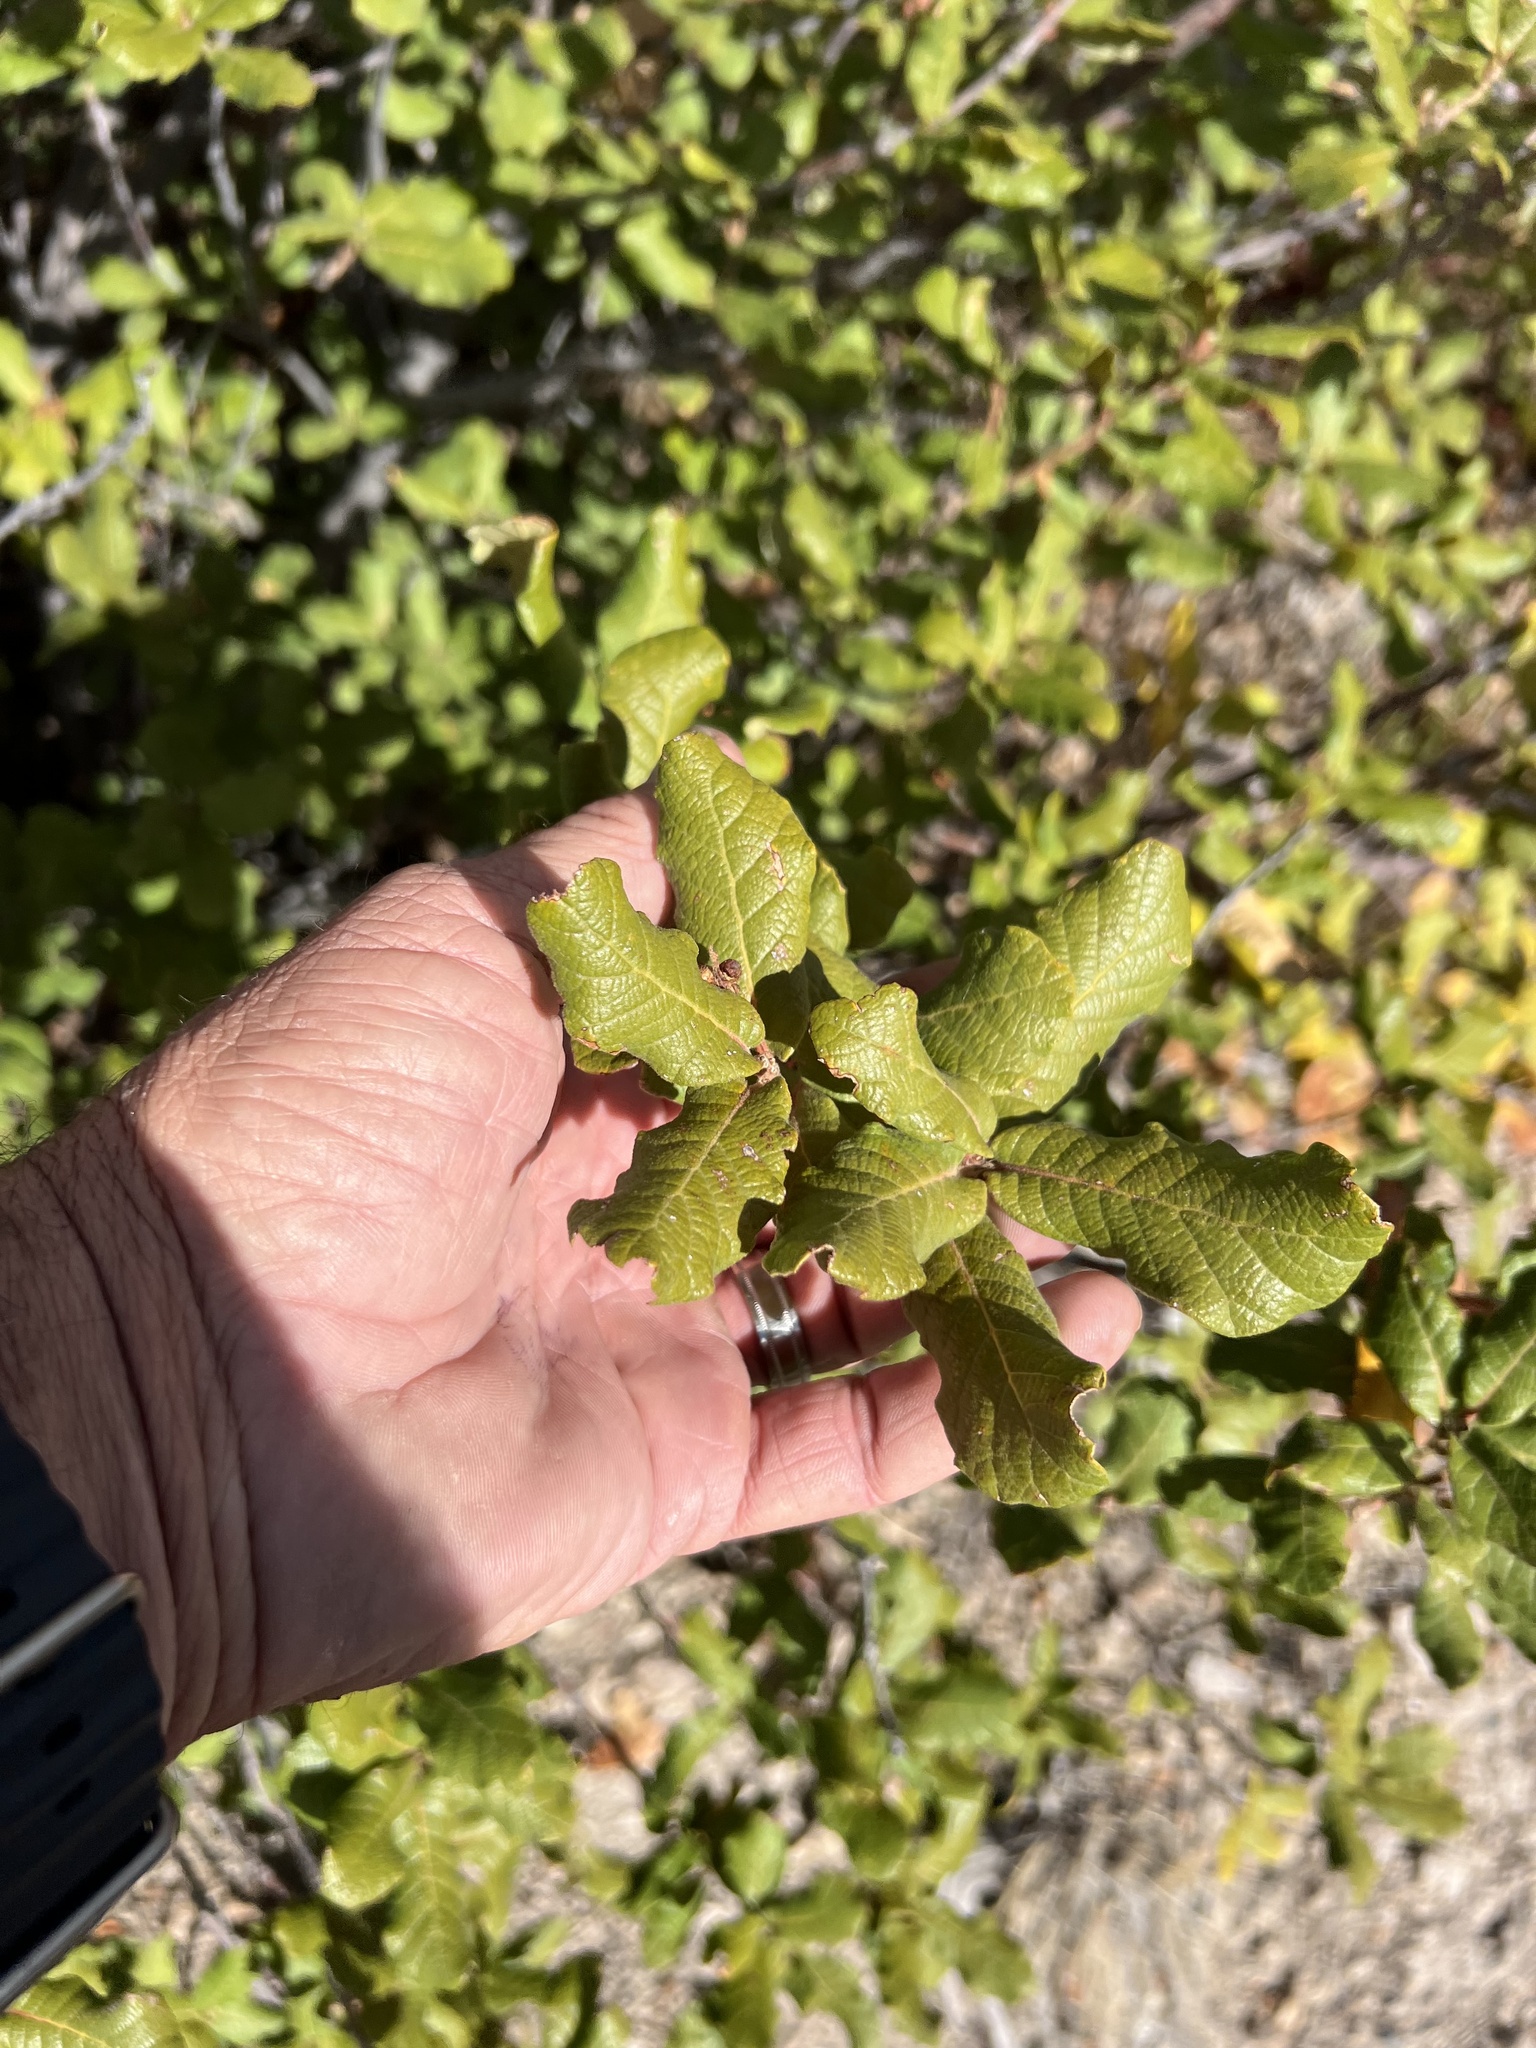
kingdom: Plantae
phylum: Tracheophyta
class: Magnoliopsida
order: Fagales
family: Fagaceae
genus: Quercus
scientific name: Quercus rugosa
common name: Netleaf oak
